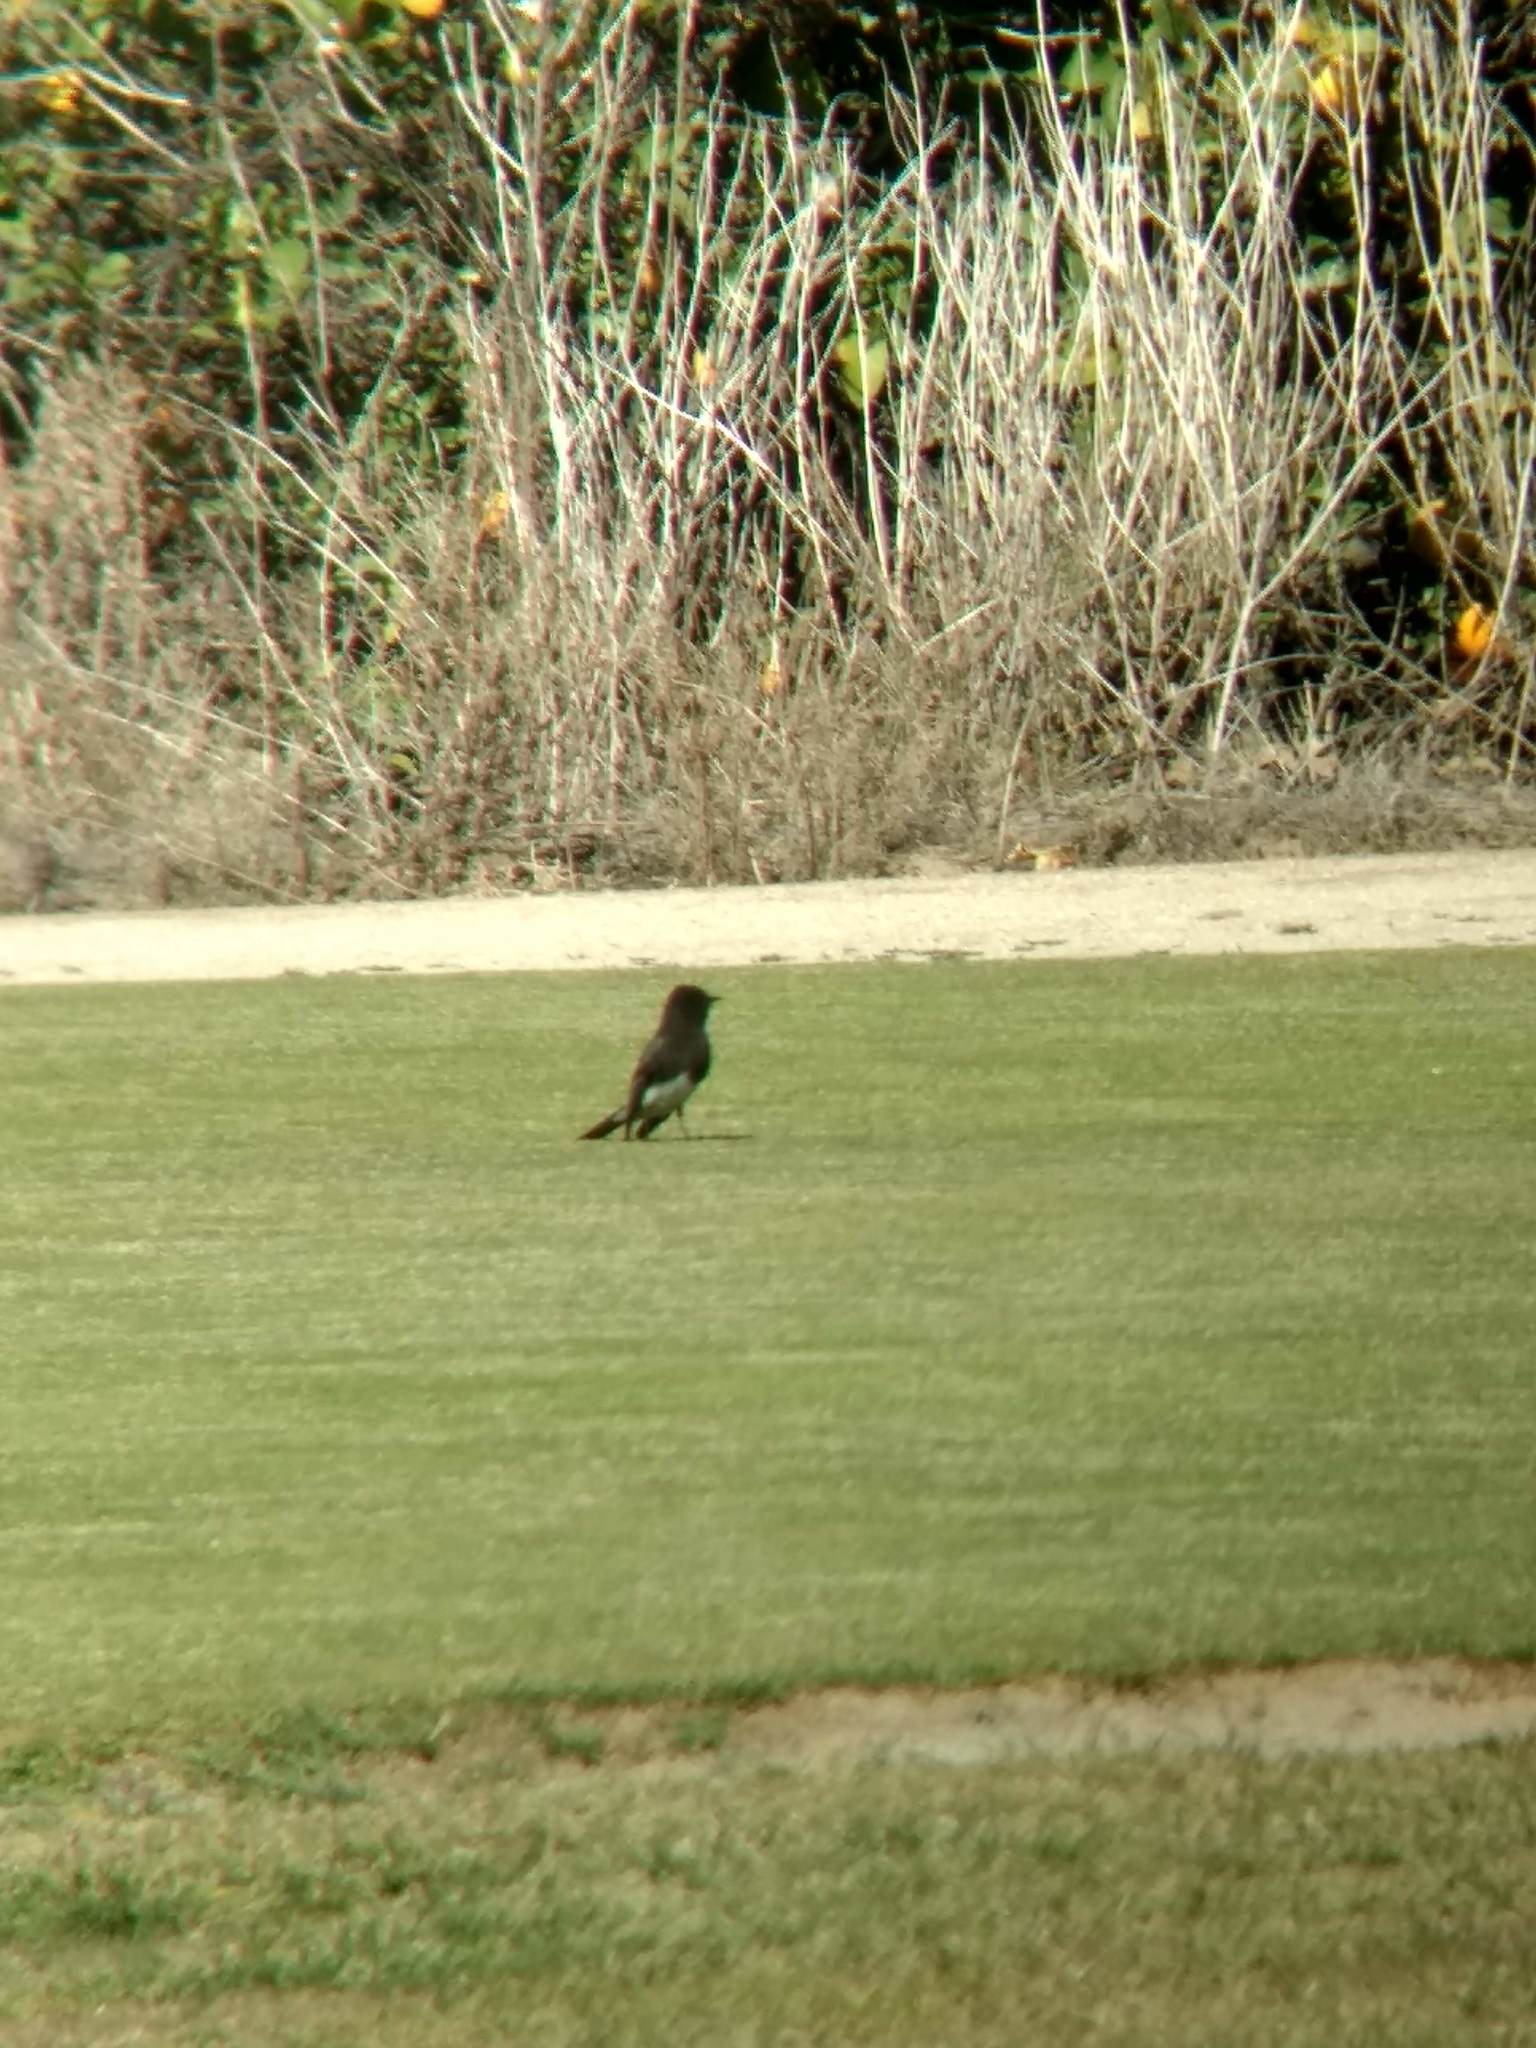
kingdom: Animalia
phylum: Chordata
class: Aves
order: Passeriformes
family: Tyrannidae
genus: Sayornis
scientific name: Sayornis nigricans
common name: Black phoebe
